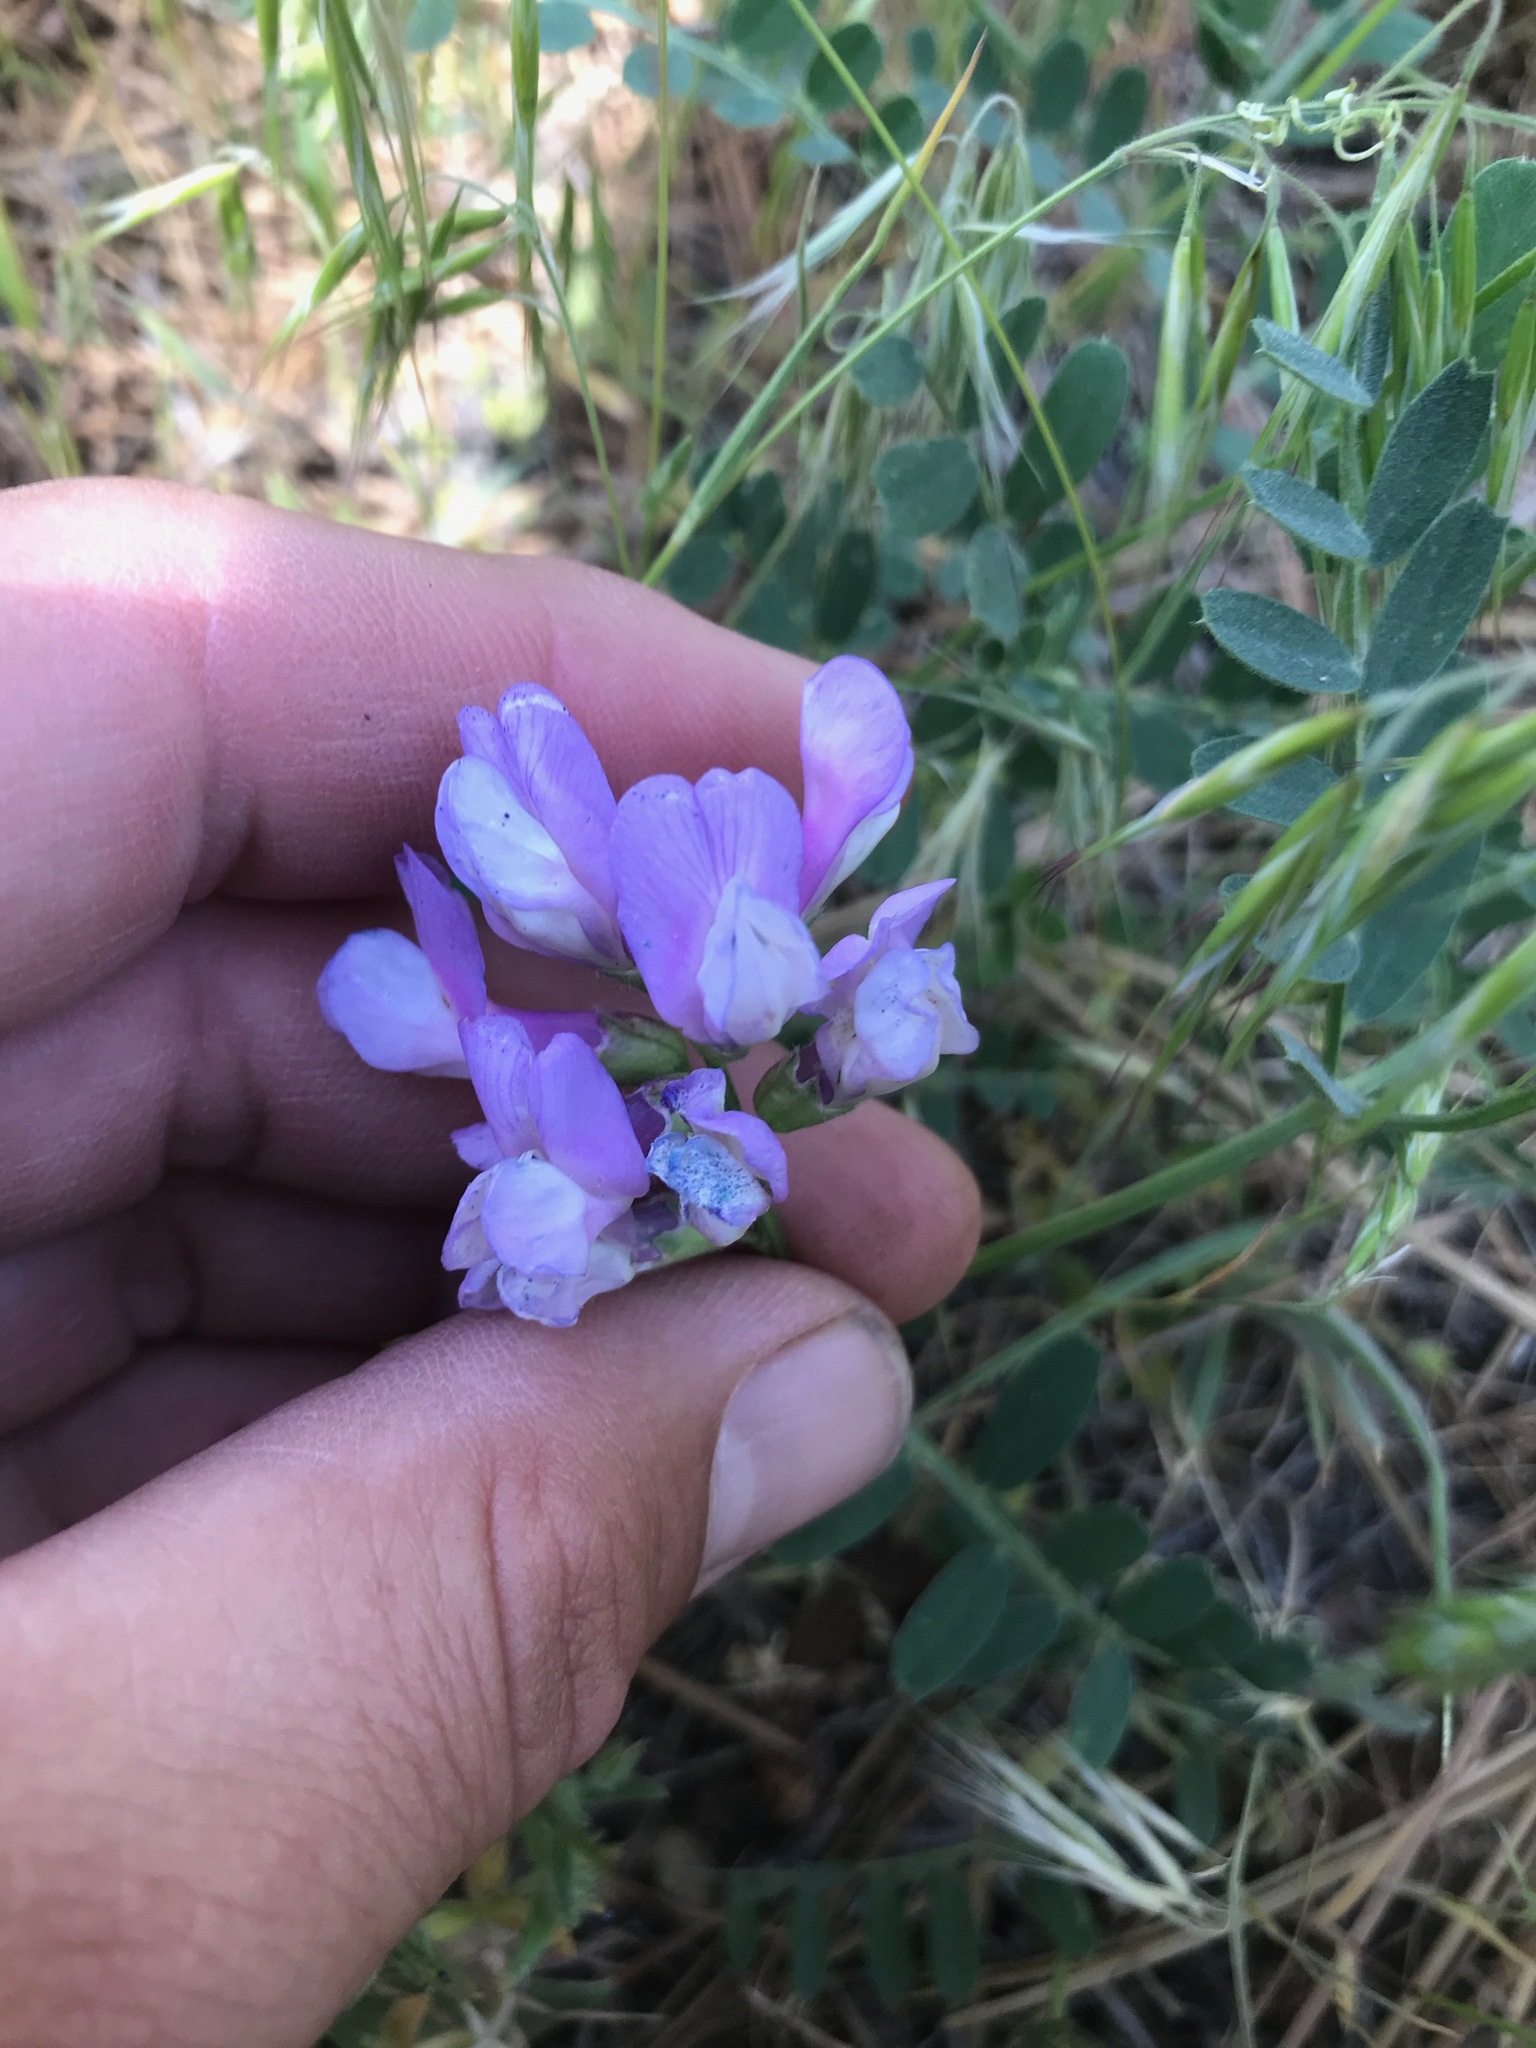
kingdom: Plantae
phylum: Tracheophyta
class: Magnoliopsida
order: Fabales
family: Fabaceae
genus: Vicia
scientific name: Vicia americana
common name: American vetch
